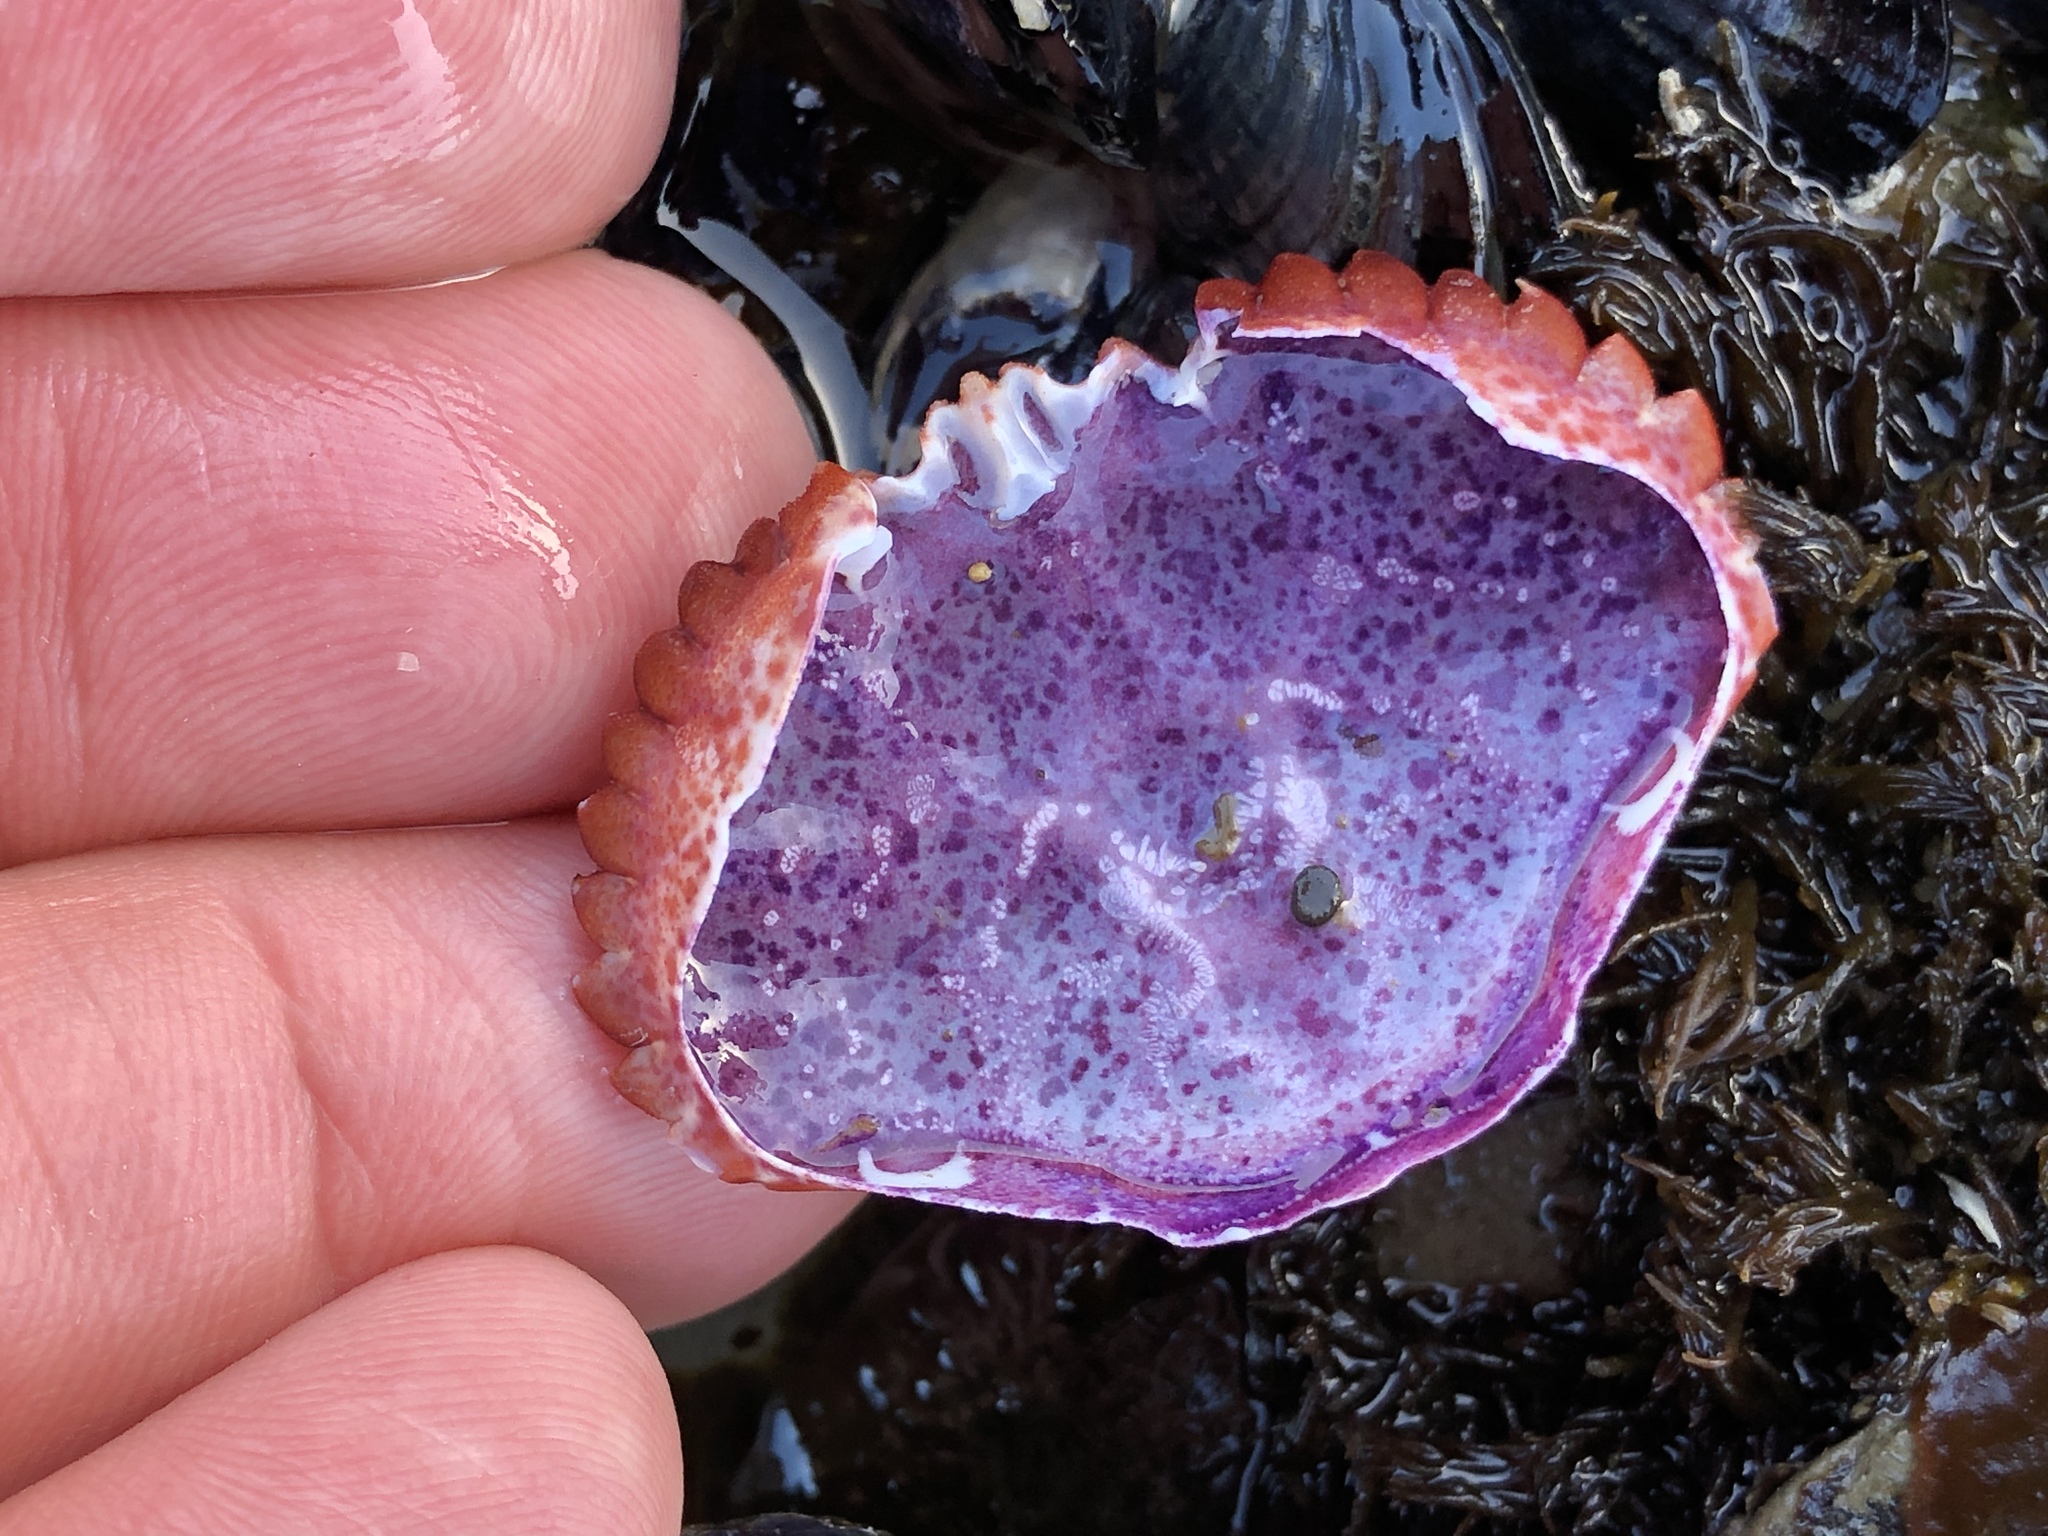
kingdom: Animalia
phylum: Arthropoda
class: Malacostraca
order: Decapoda
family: Cancridae
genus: Romaleon
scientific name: Romaleon antennarium
